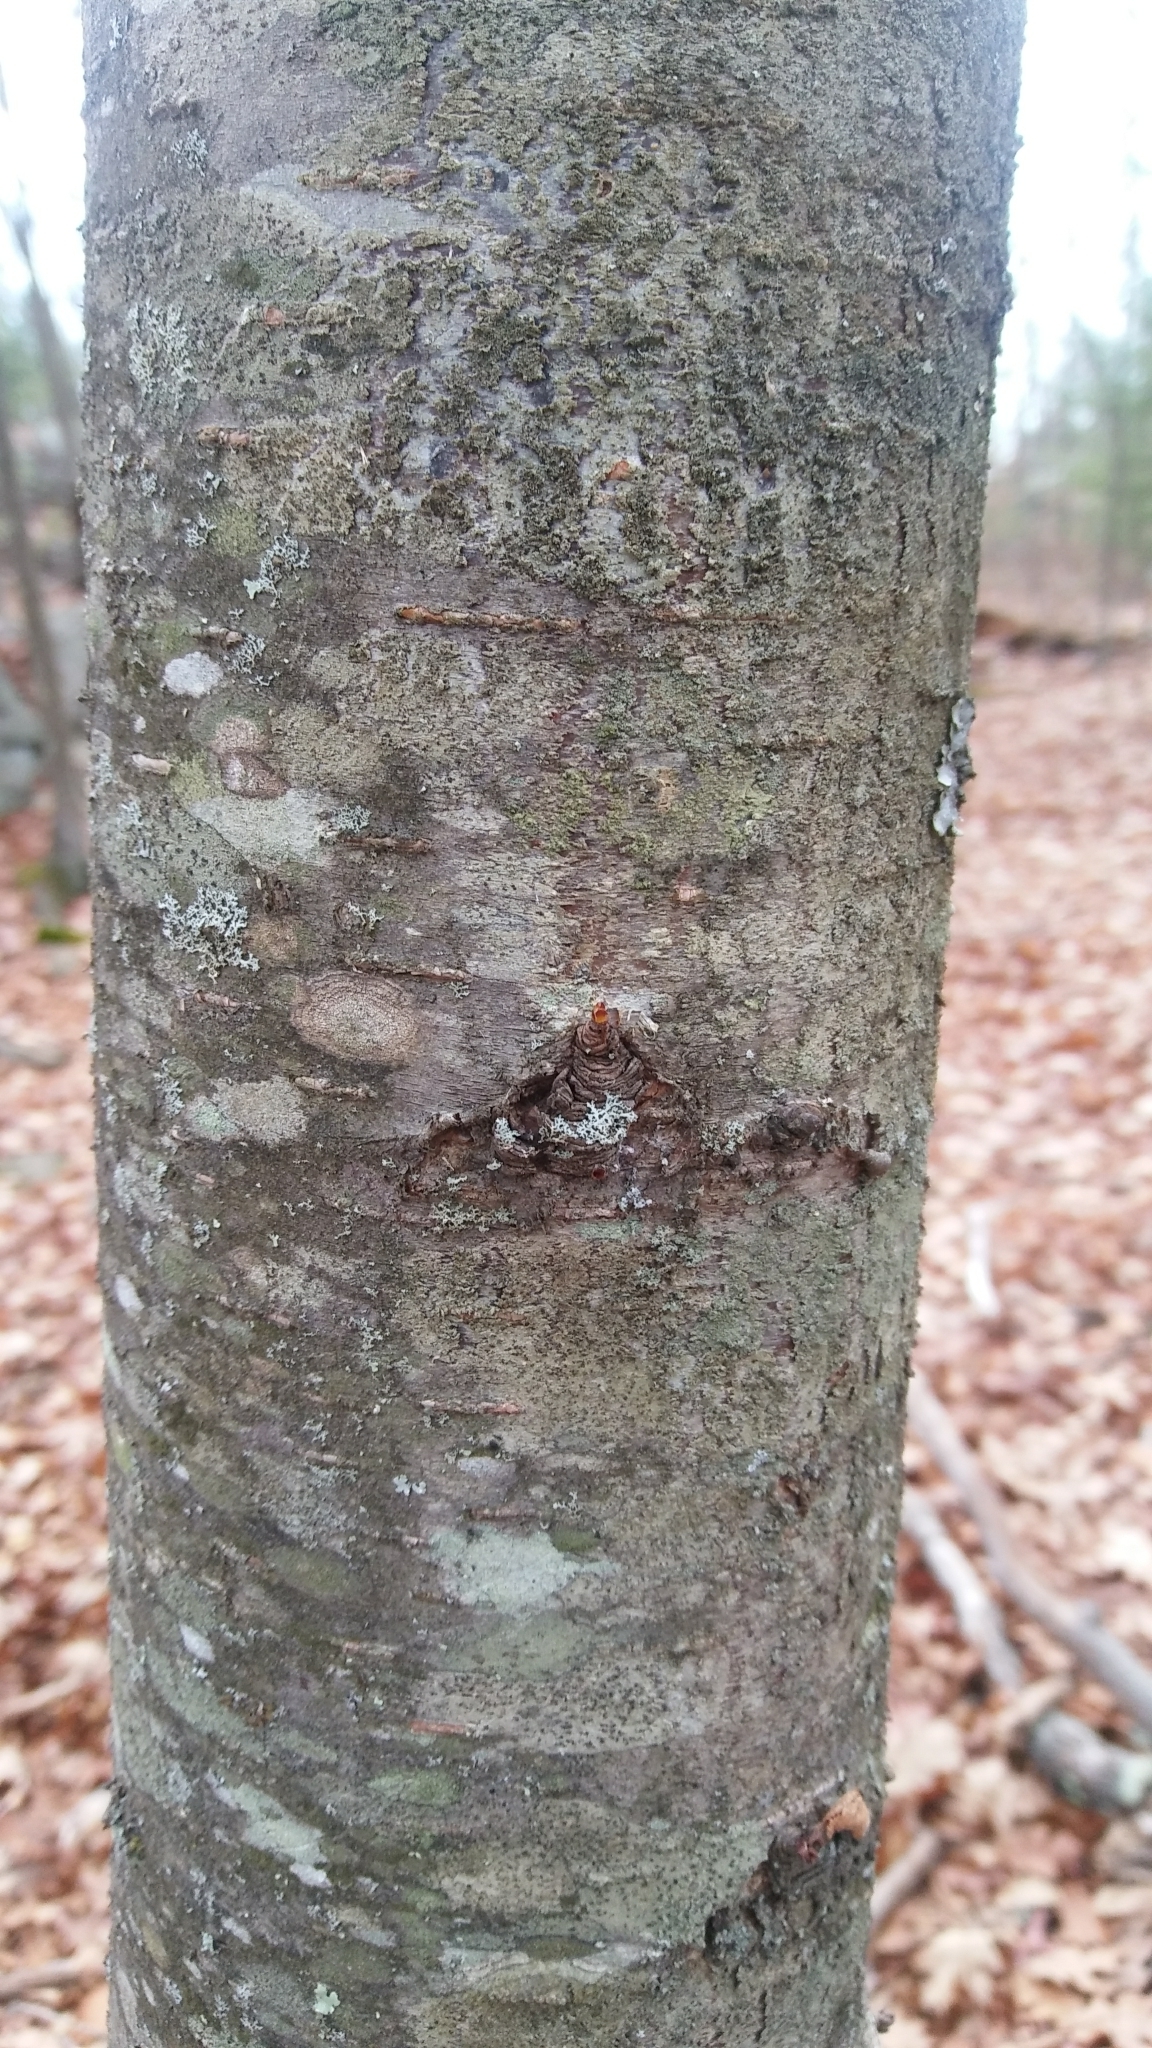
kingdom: Plantae
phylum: Tracheophyta
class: Magnoliopsida
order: Fagales
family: Betulaceae
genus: Betula
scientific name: Betula lenta
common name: Black birch
